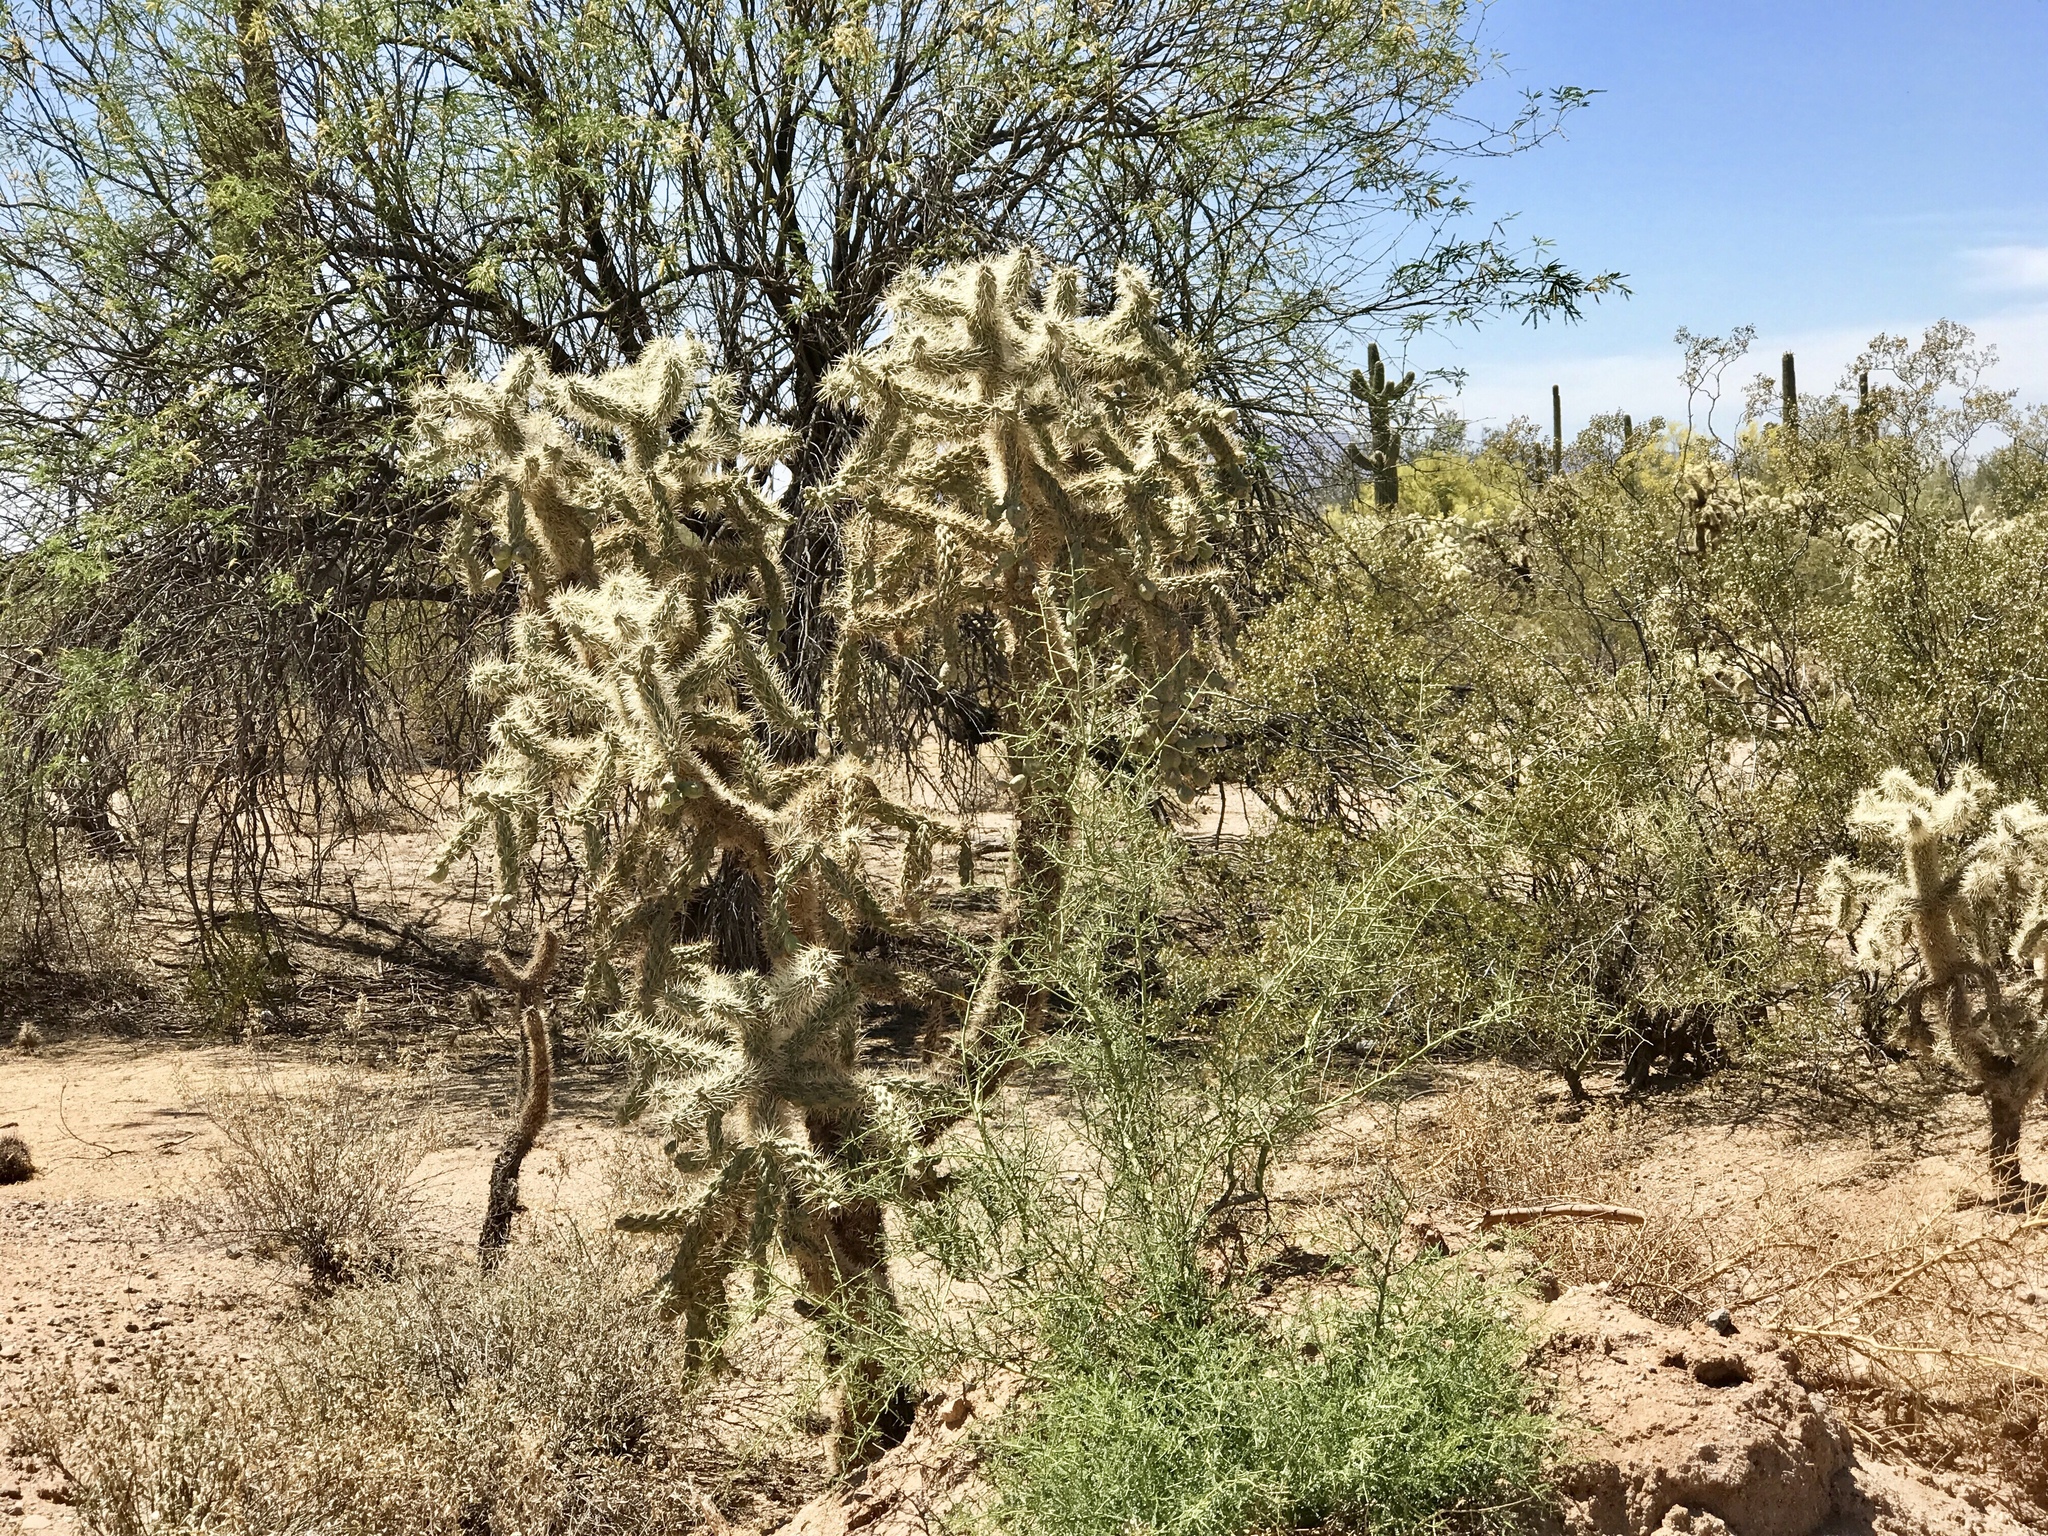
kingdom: Plantae
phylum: Tracheophyta
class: Magnoliopsida
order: Caryophyllales
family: Cactaceae
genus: Cylindropuntia
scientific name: Cylindropuntia fulgida
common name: Jumping cholla
